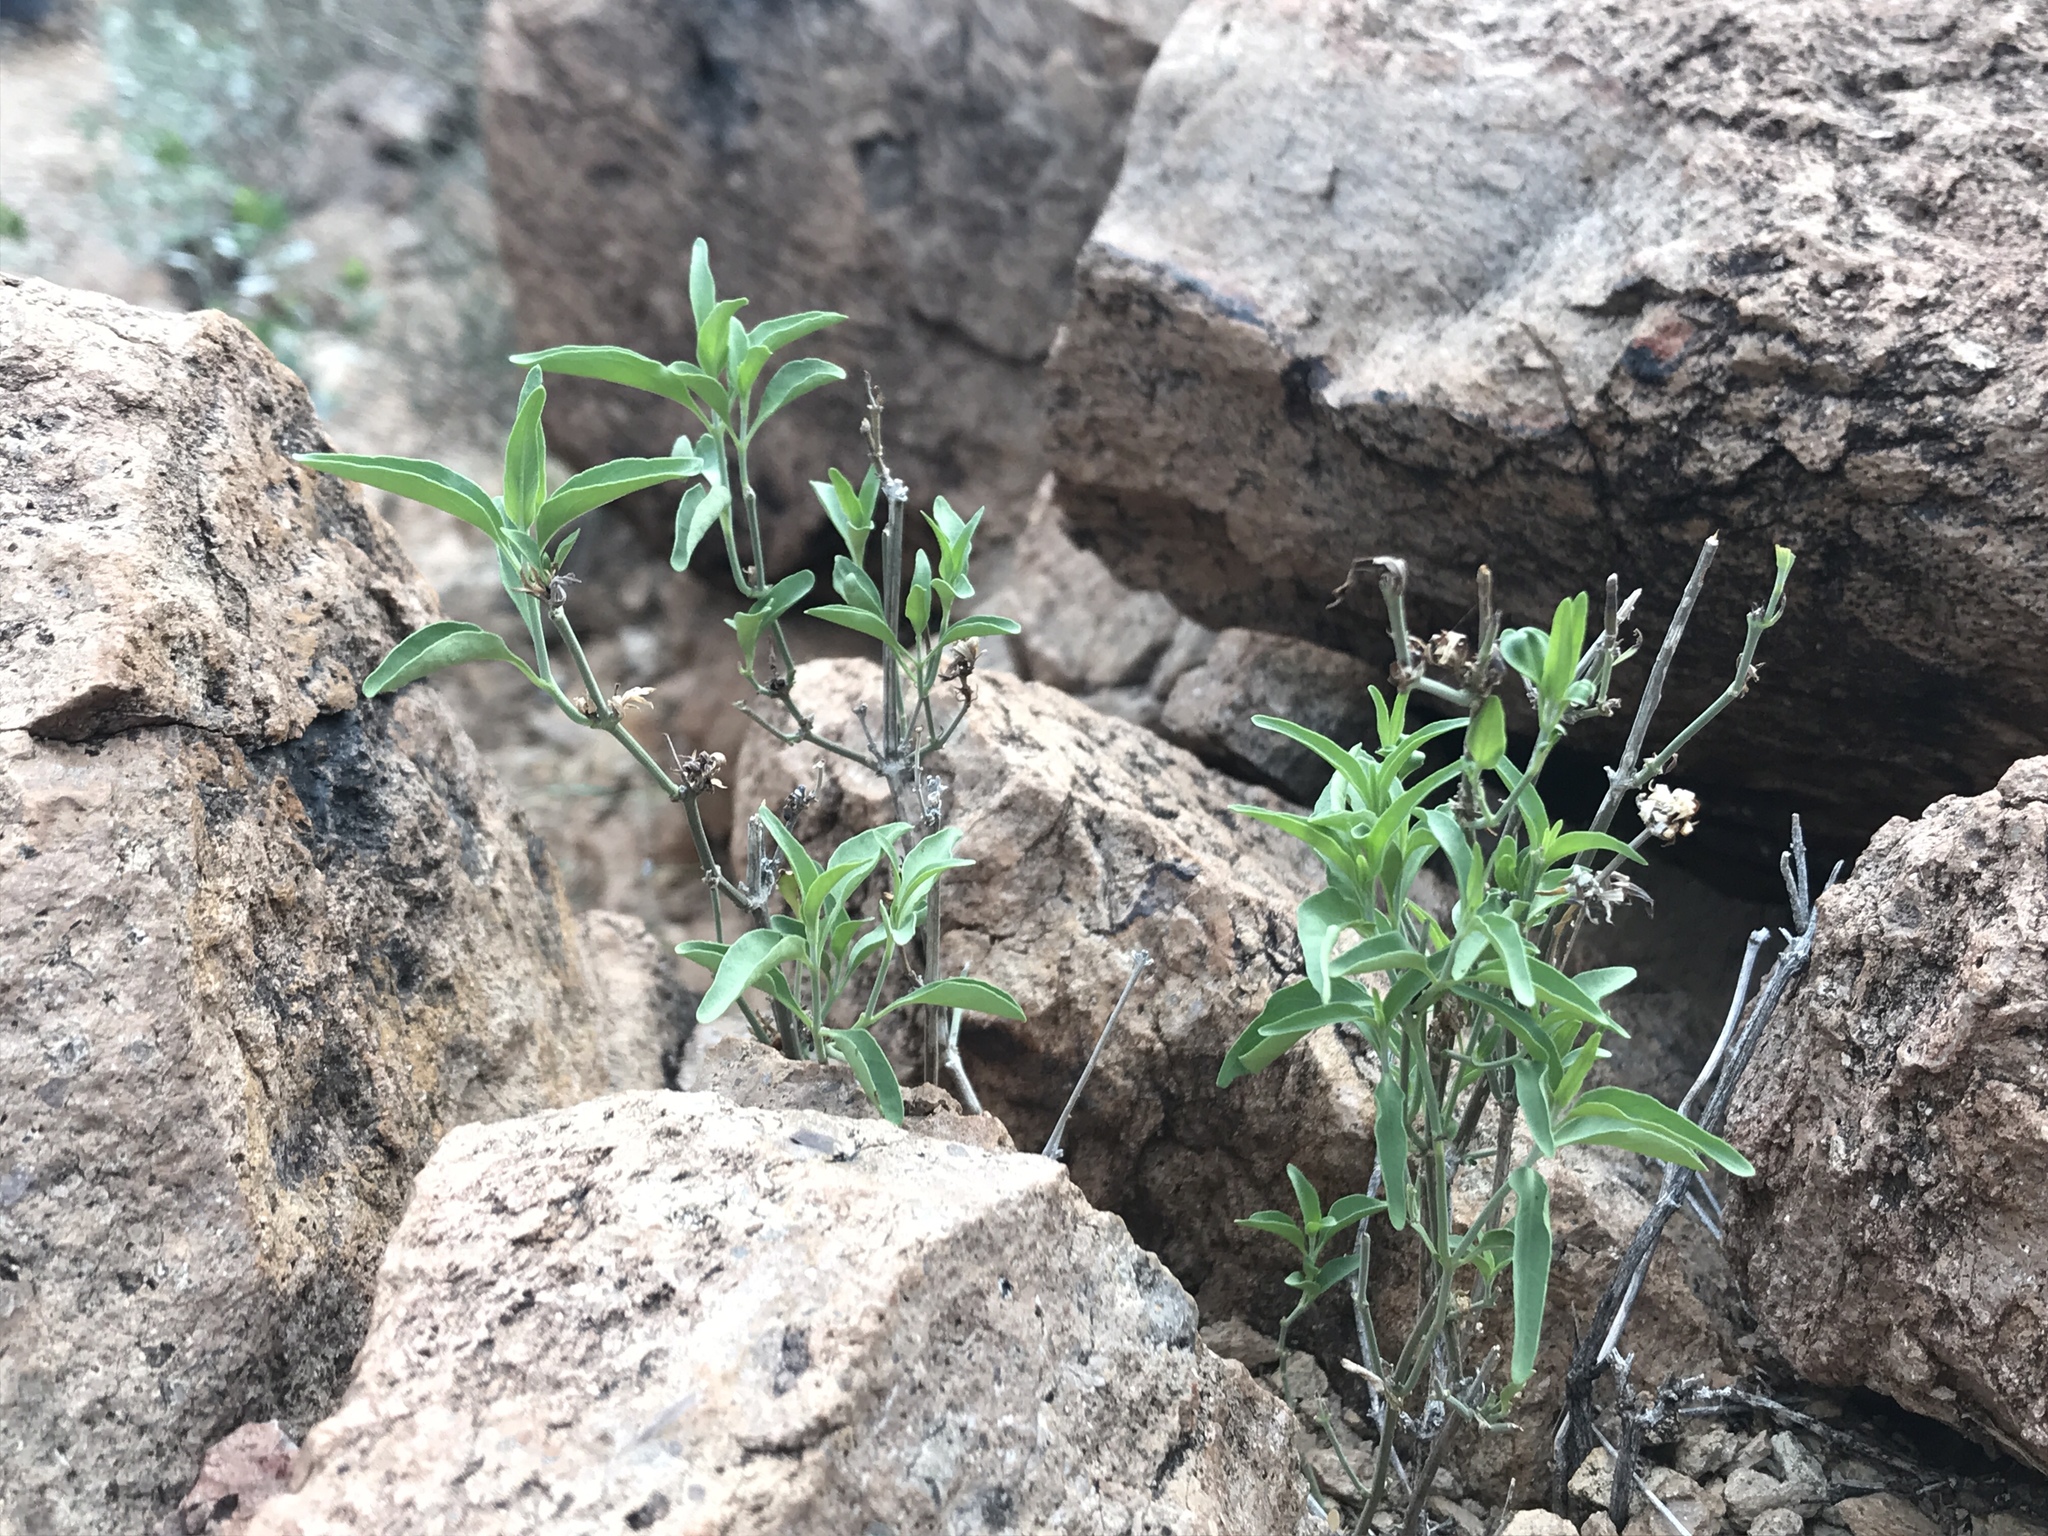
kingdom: Plantae
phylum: Tracheophyta
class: Magnoliopsida
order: Lamiales
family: Acanthaceae
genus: Justicia
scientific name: Justicia longii
